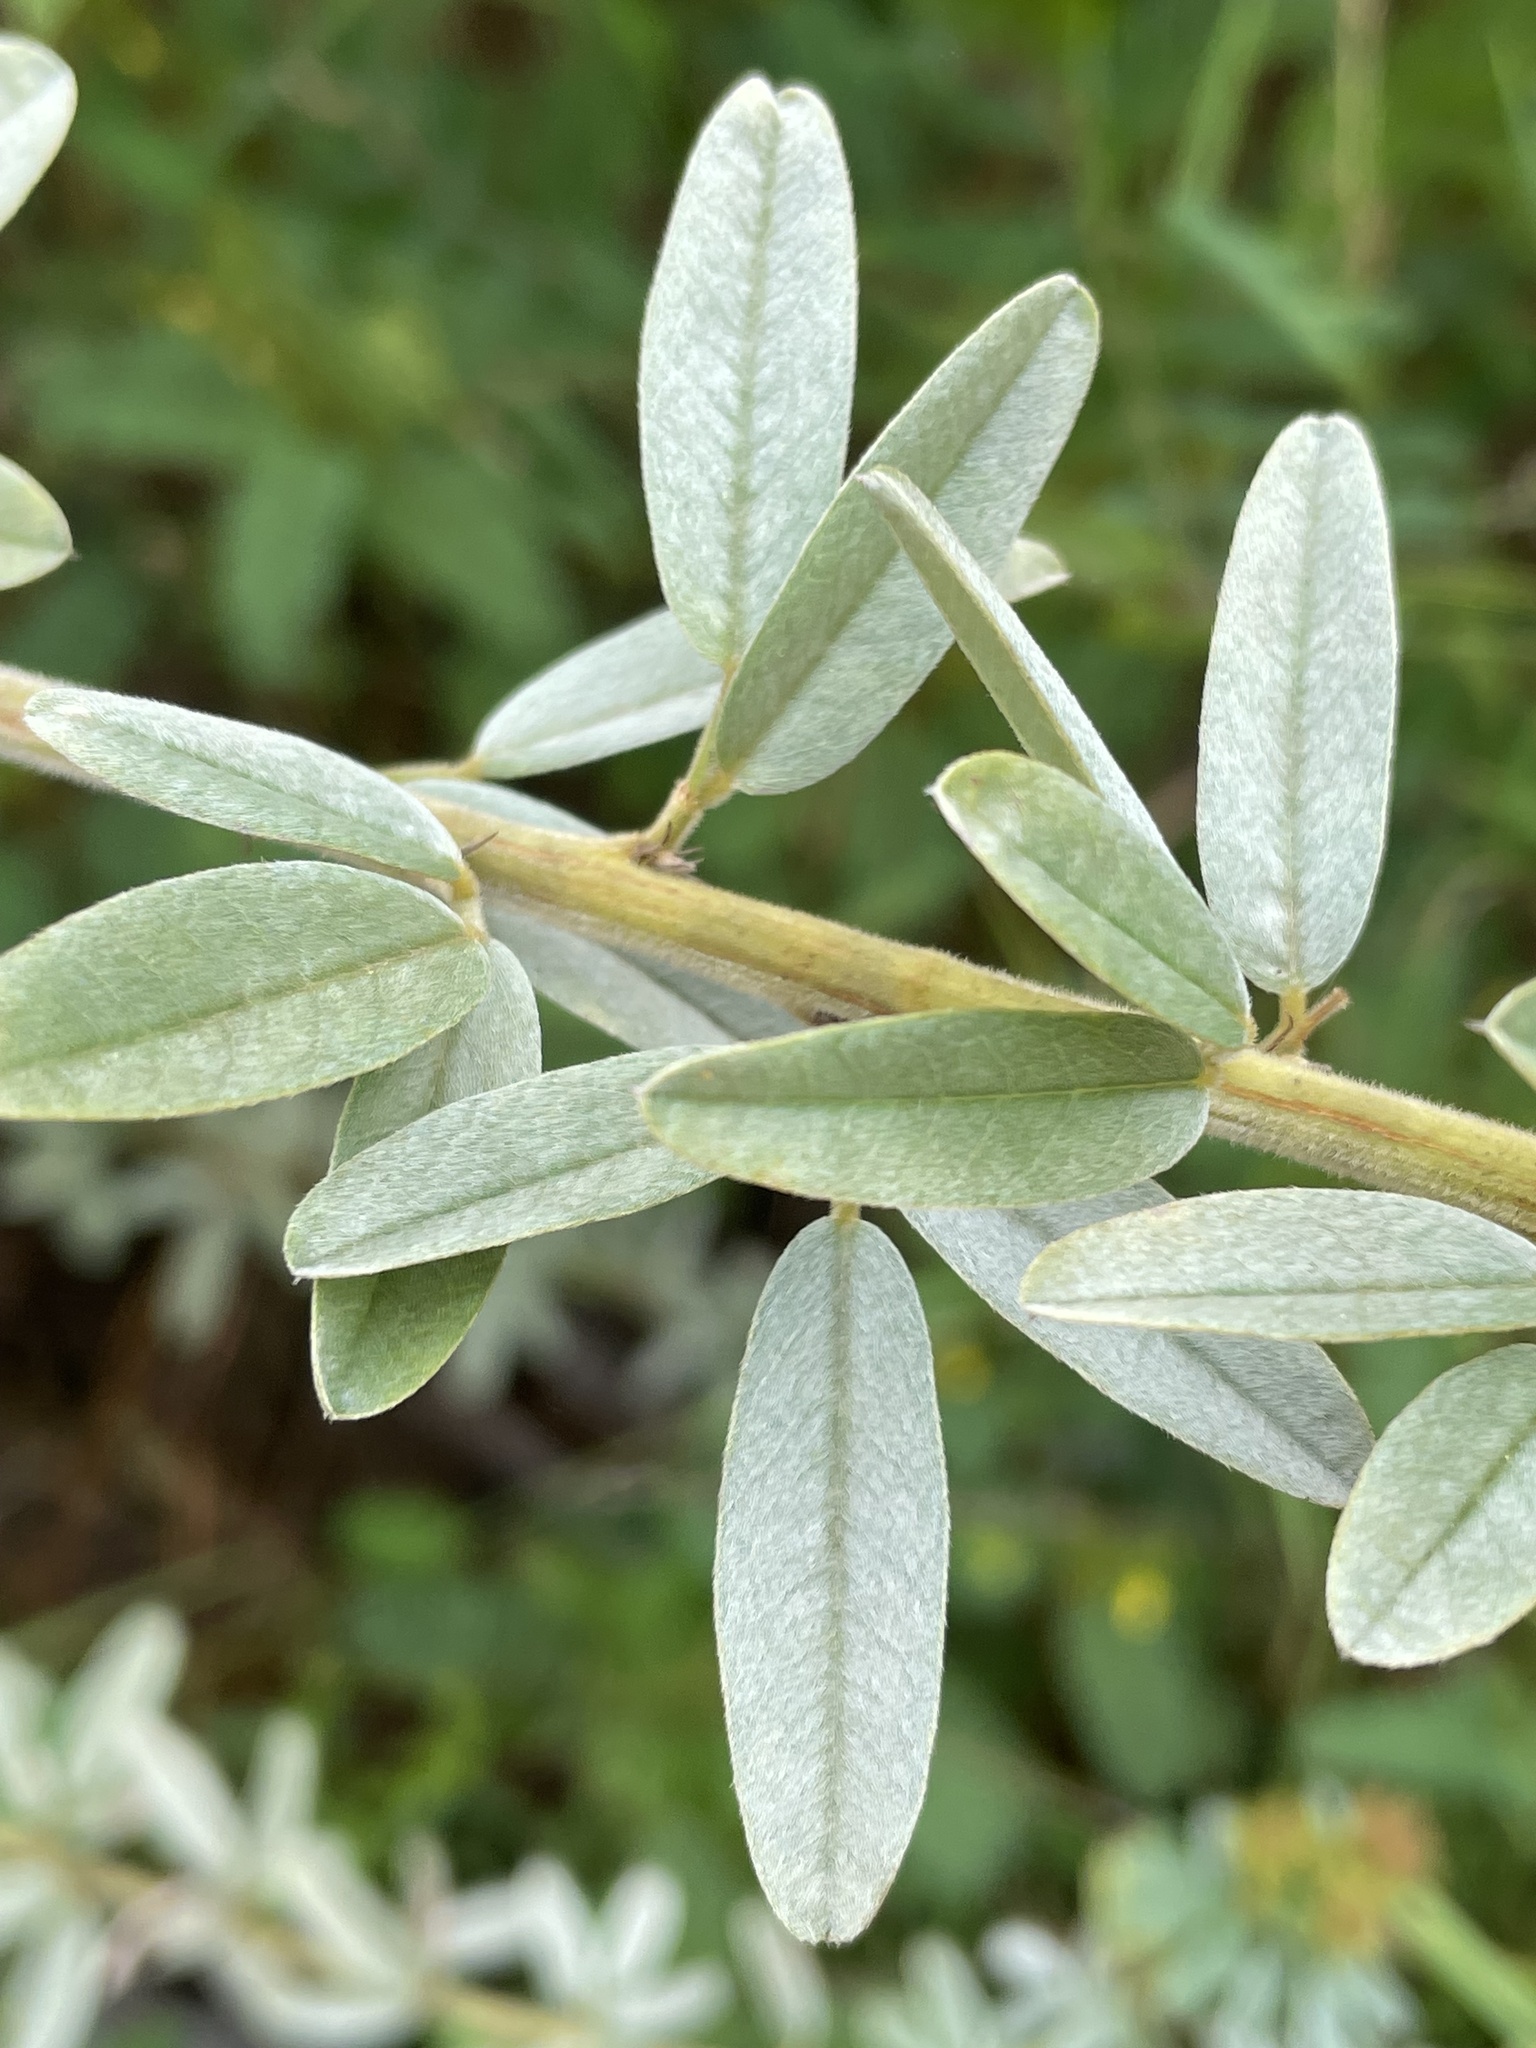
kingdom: Plantae
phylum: Tracheophyta
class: Magnoliopsida
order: Fabales
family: Fabaceae
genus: Lespedeza
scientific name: Lespedeza capitata
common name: Dusty clover
